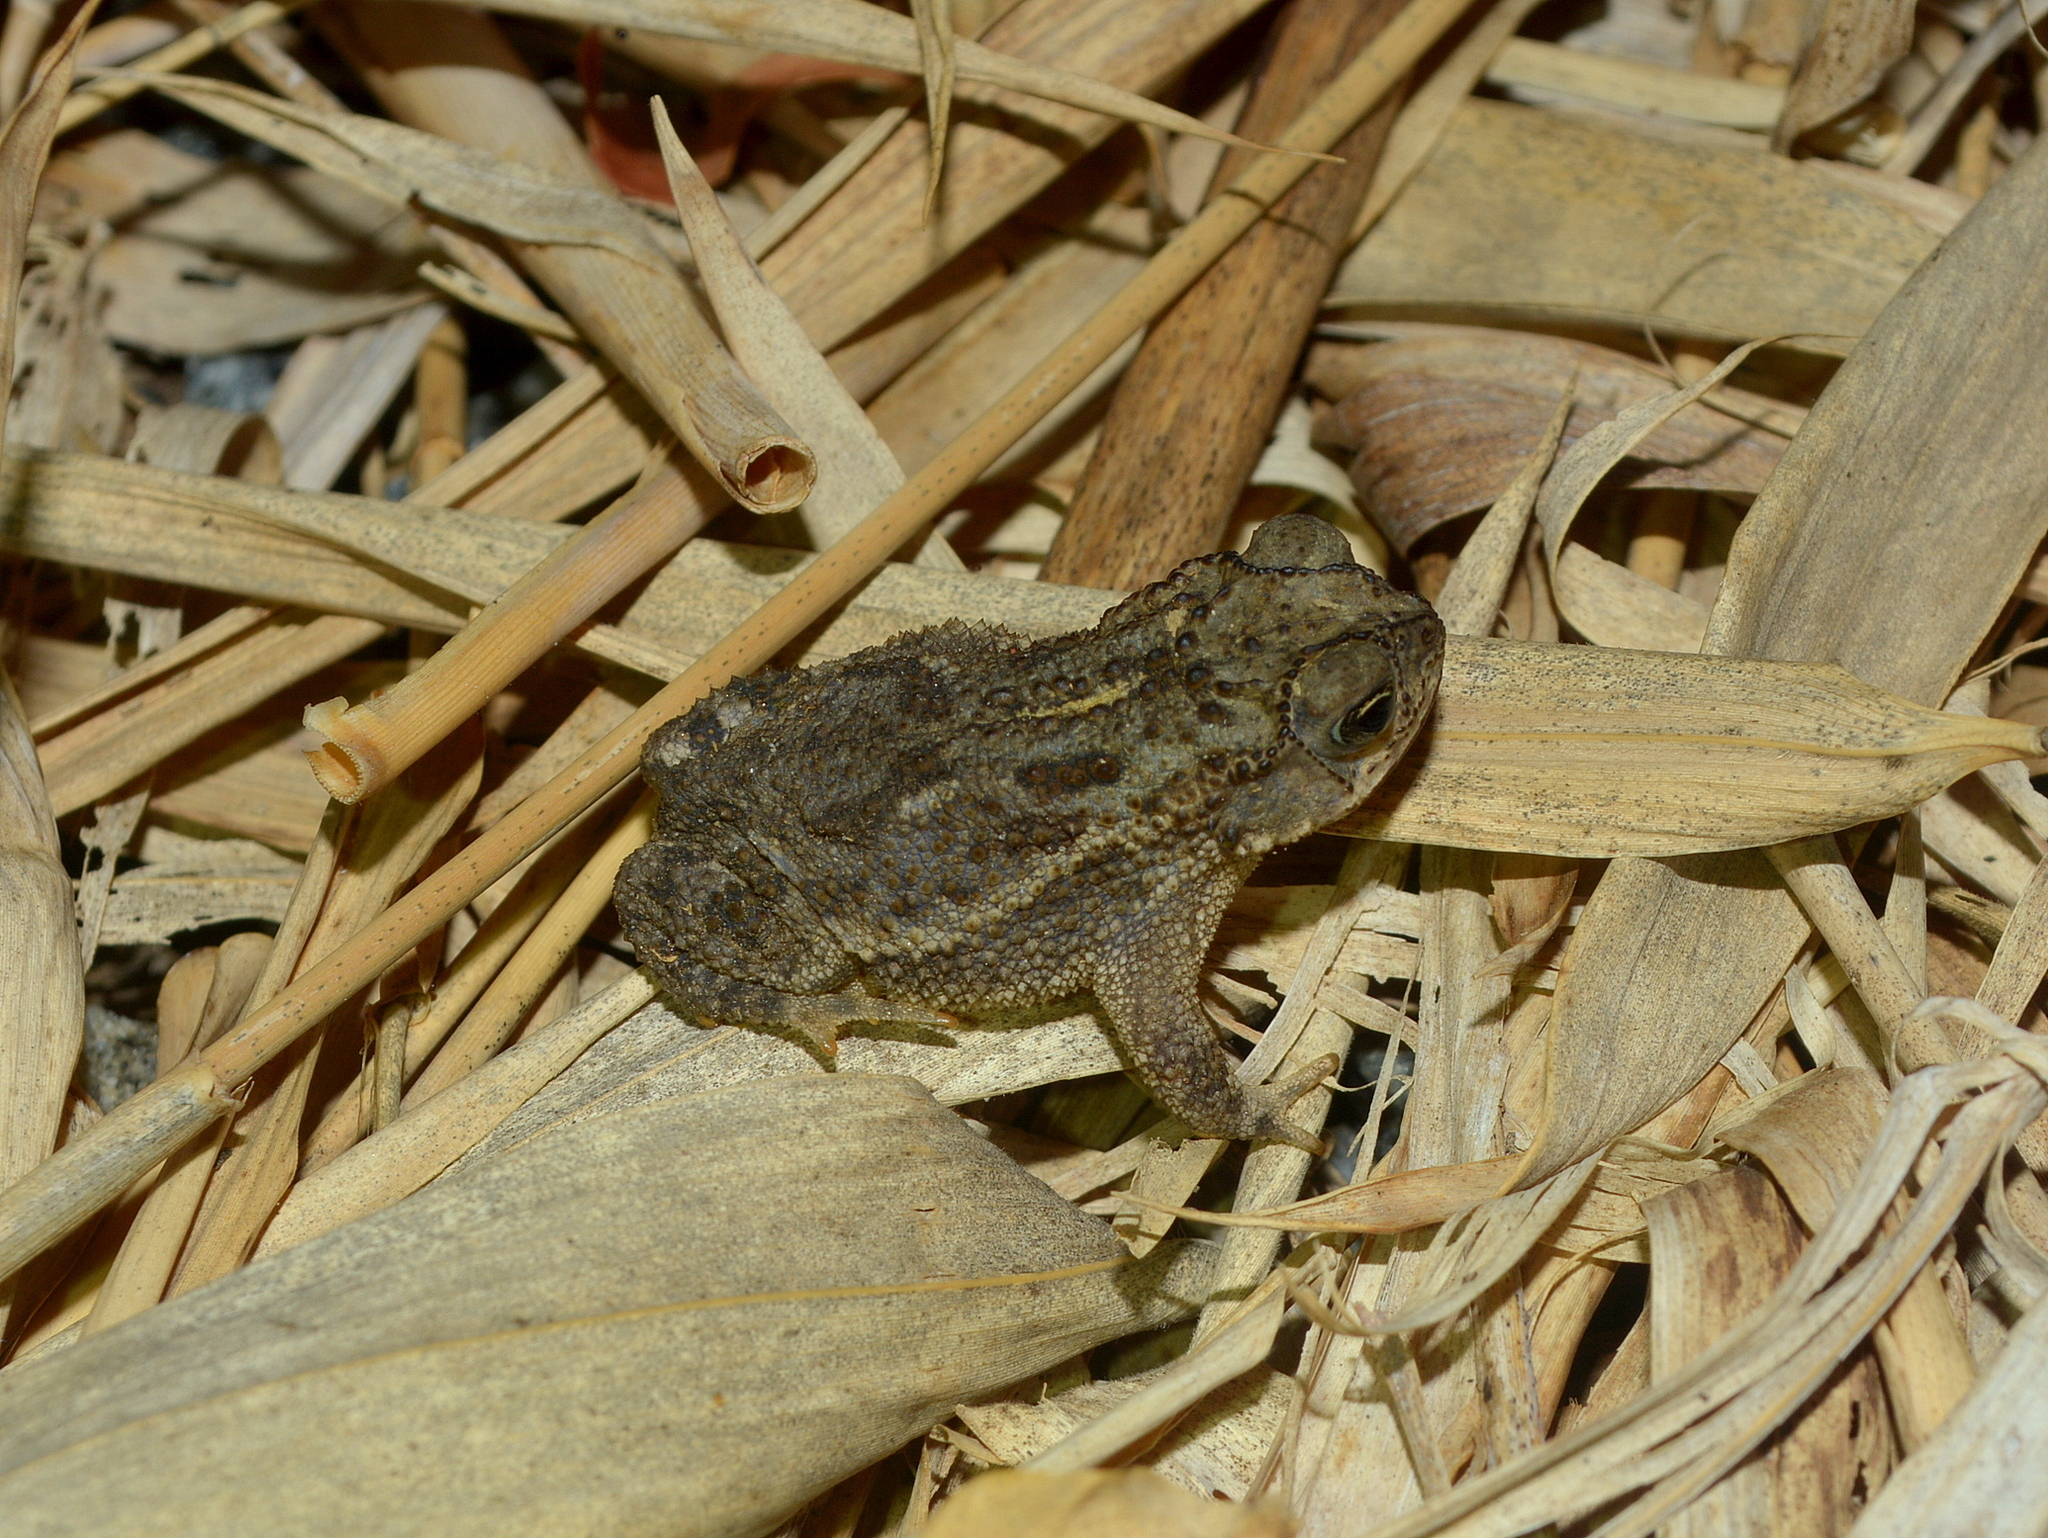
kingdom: Animalia
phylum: Chordata
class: Amphibia
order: Anura
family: Bufonidae
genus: Rhinella
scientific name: Rhinella dorbignyi
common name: D´orbigny’s toad
